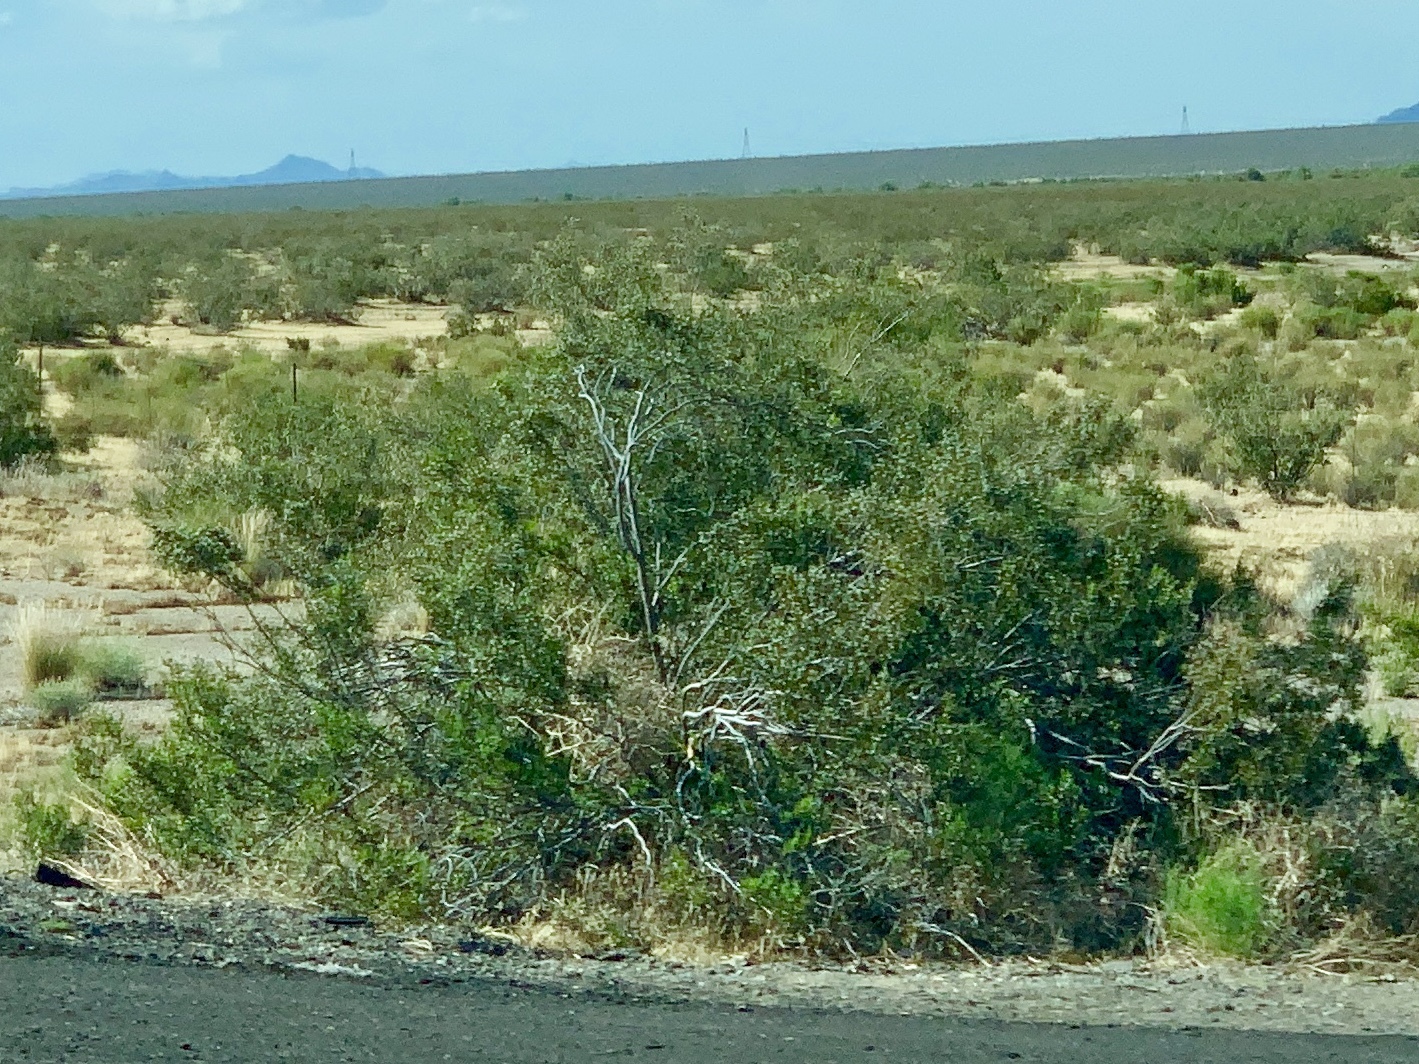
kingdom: Plantae
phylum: Tracheophyta
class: Magnoliopsida
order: Zygophyllales
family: Zygophyllaceae
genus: Larrea
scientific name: Larrea tridentata
